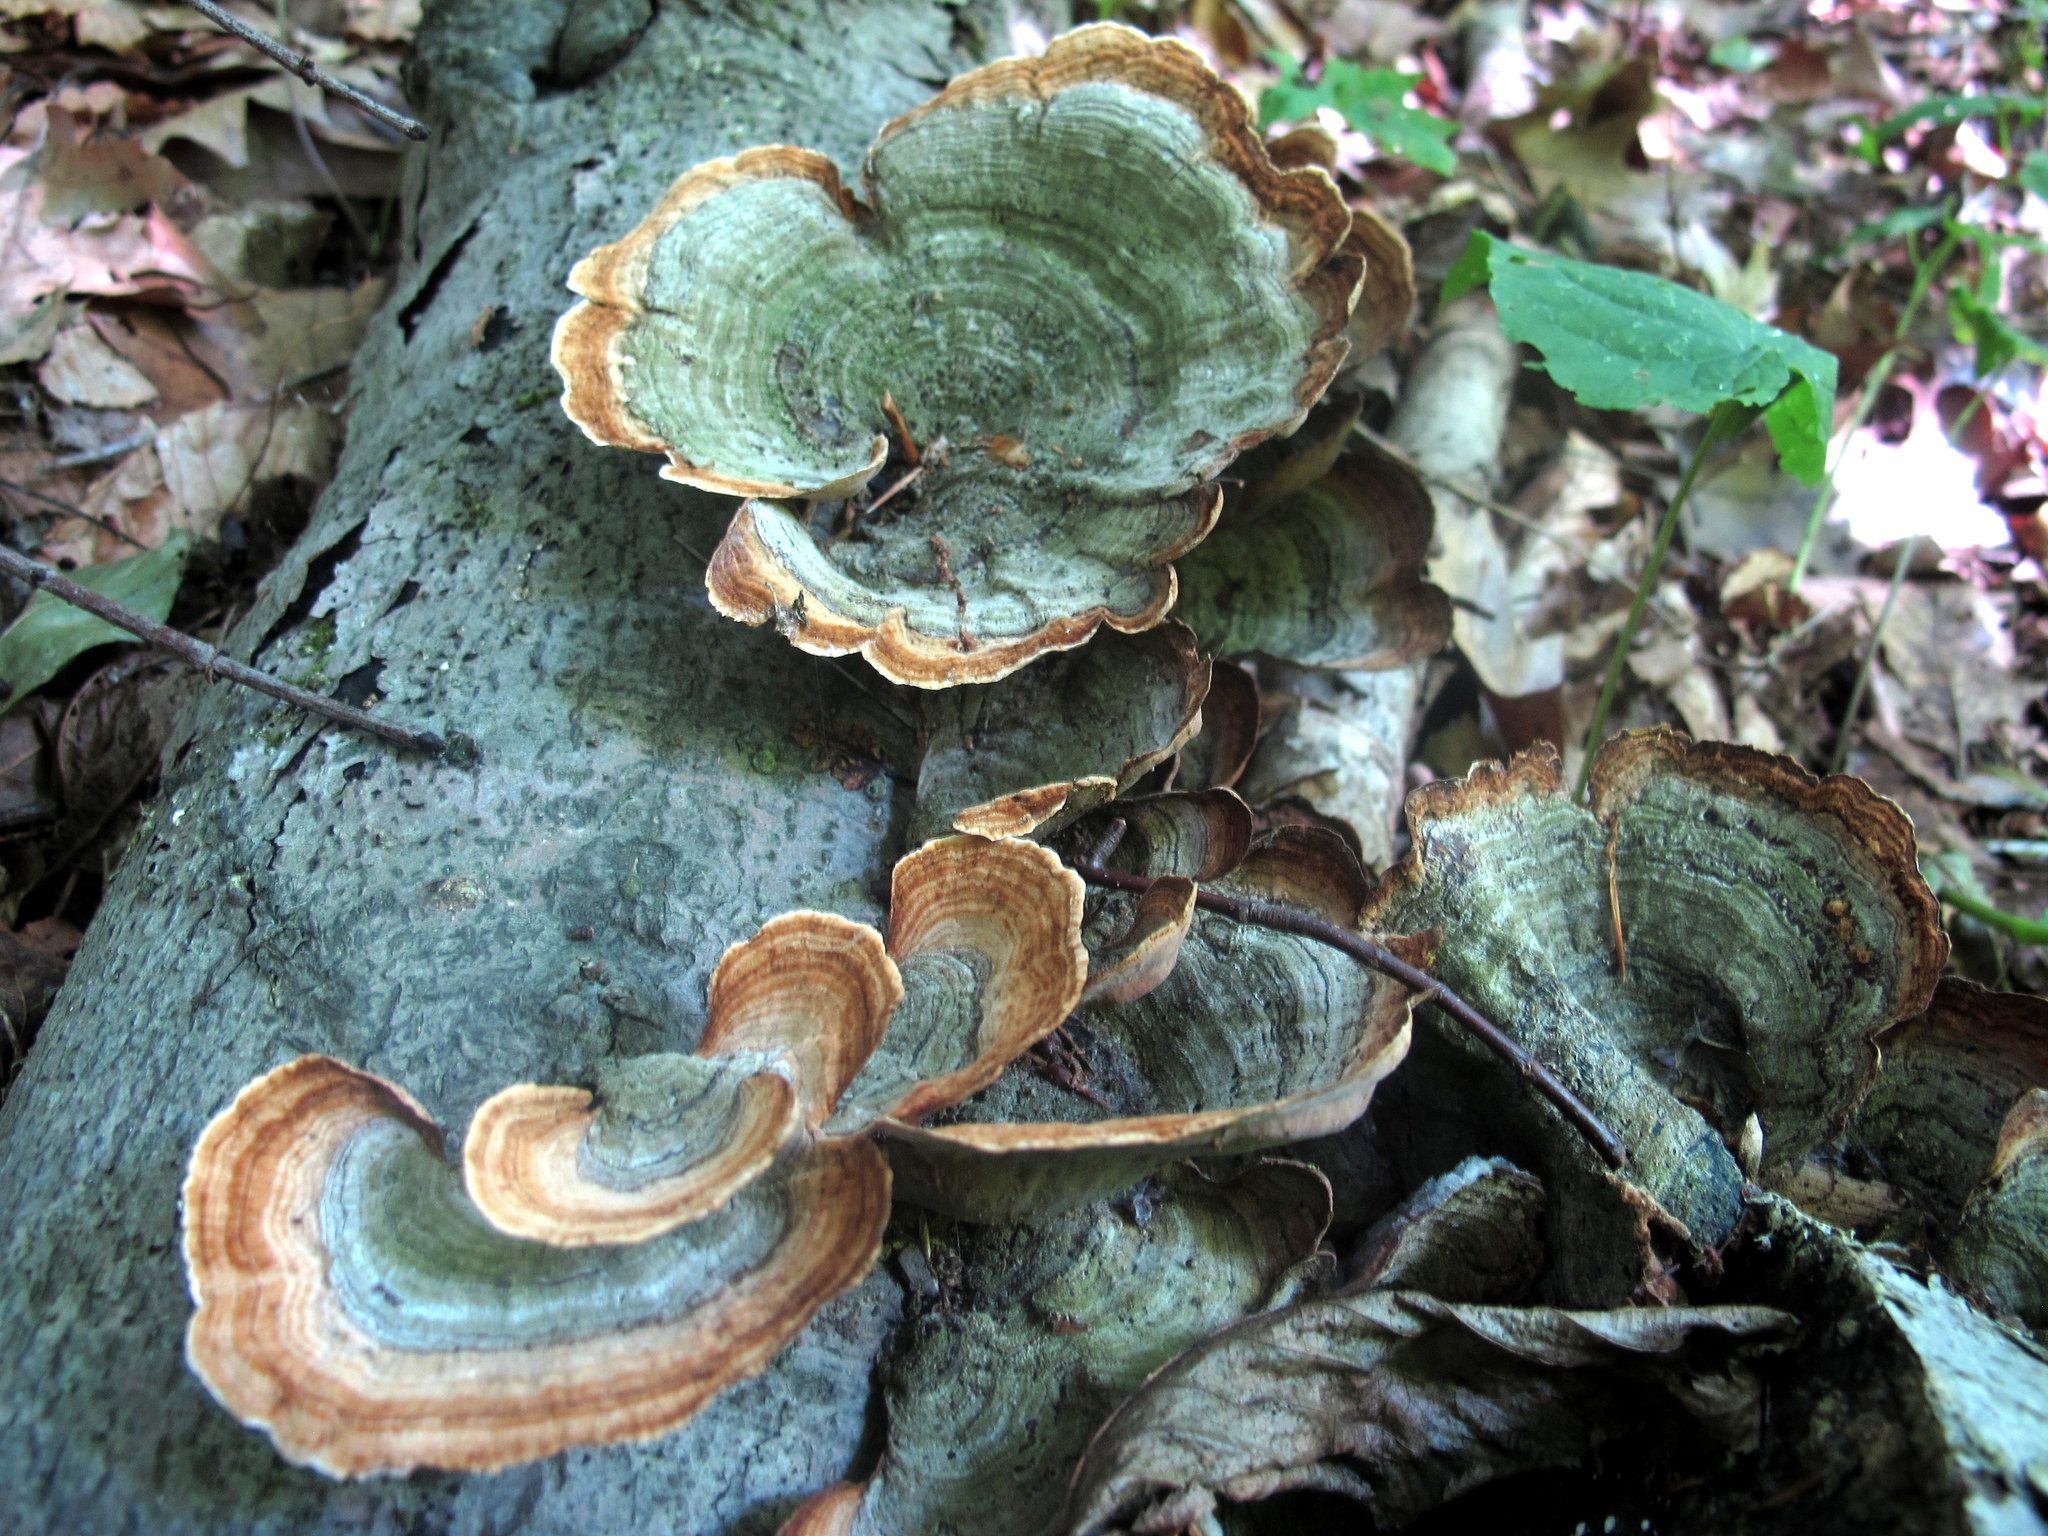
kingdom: Fungi
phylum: Basidiomycota
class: Agaricomycetes
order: Russulales
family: Stereaceae
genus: Stereum
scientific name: Stereum ostrea
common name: False turkeytail
